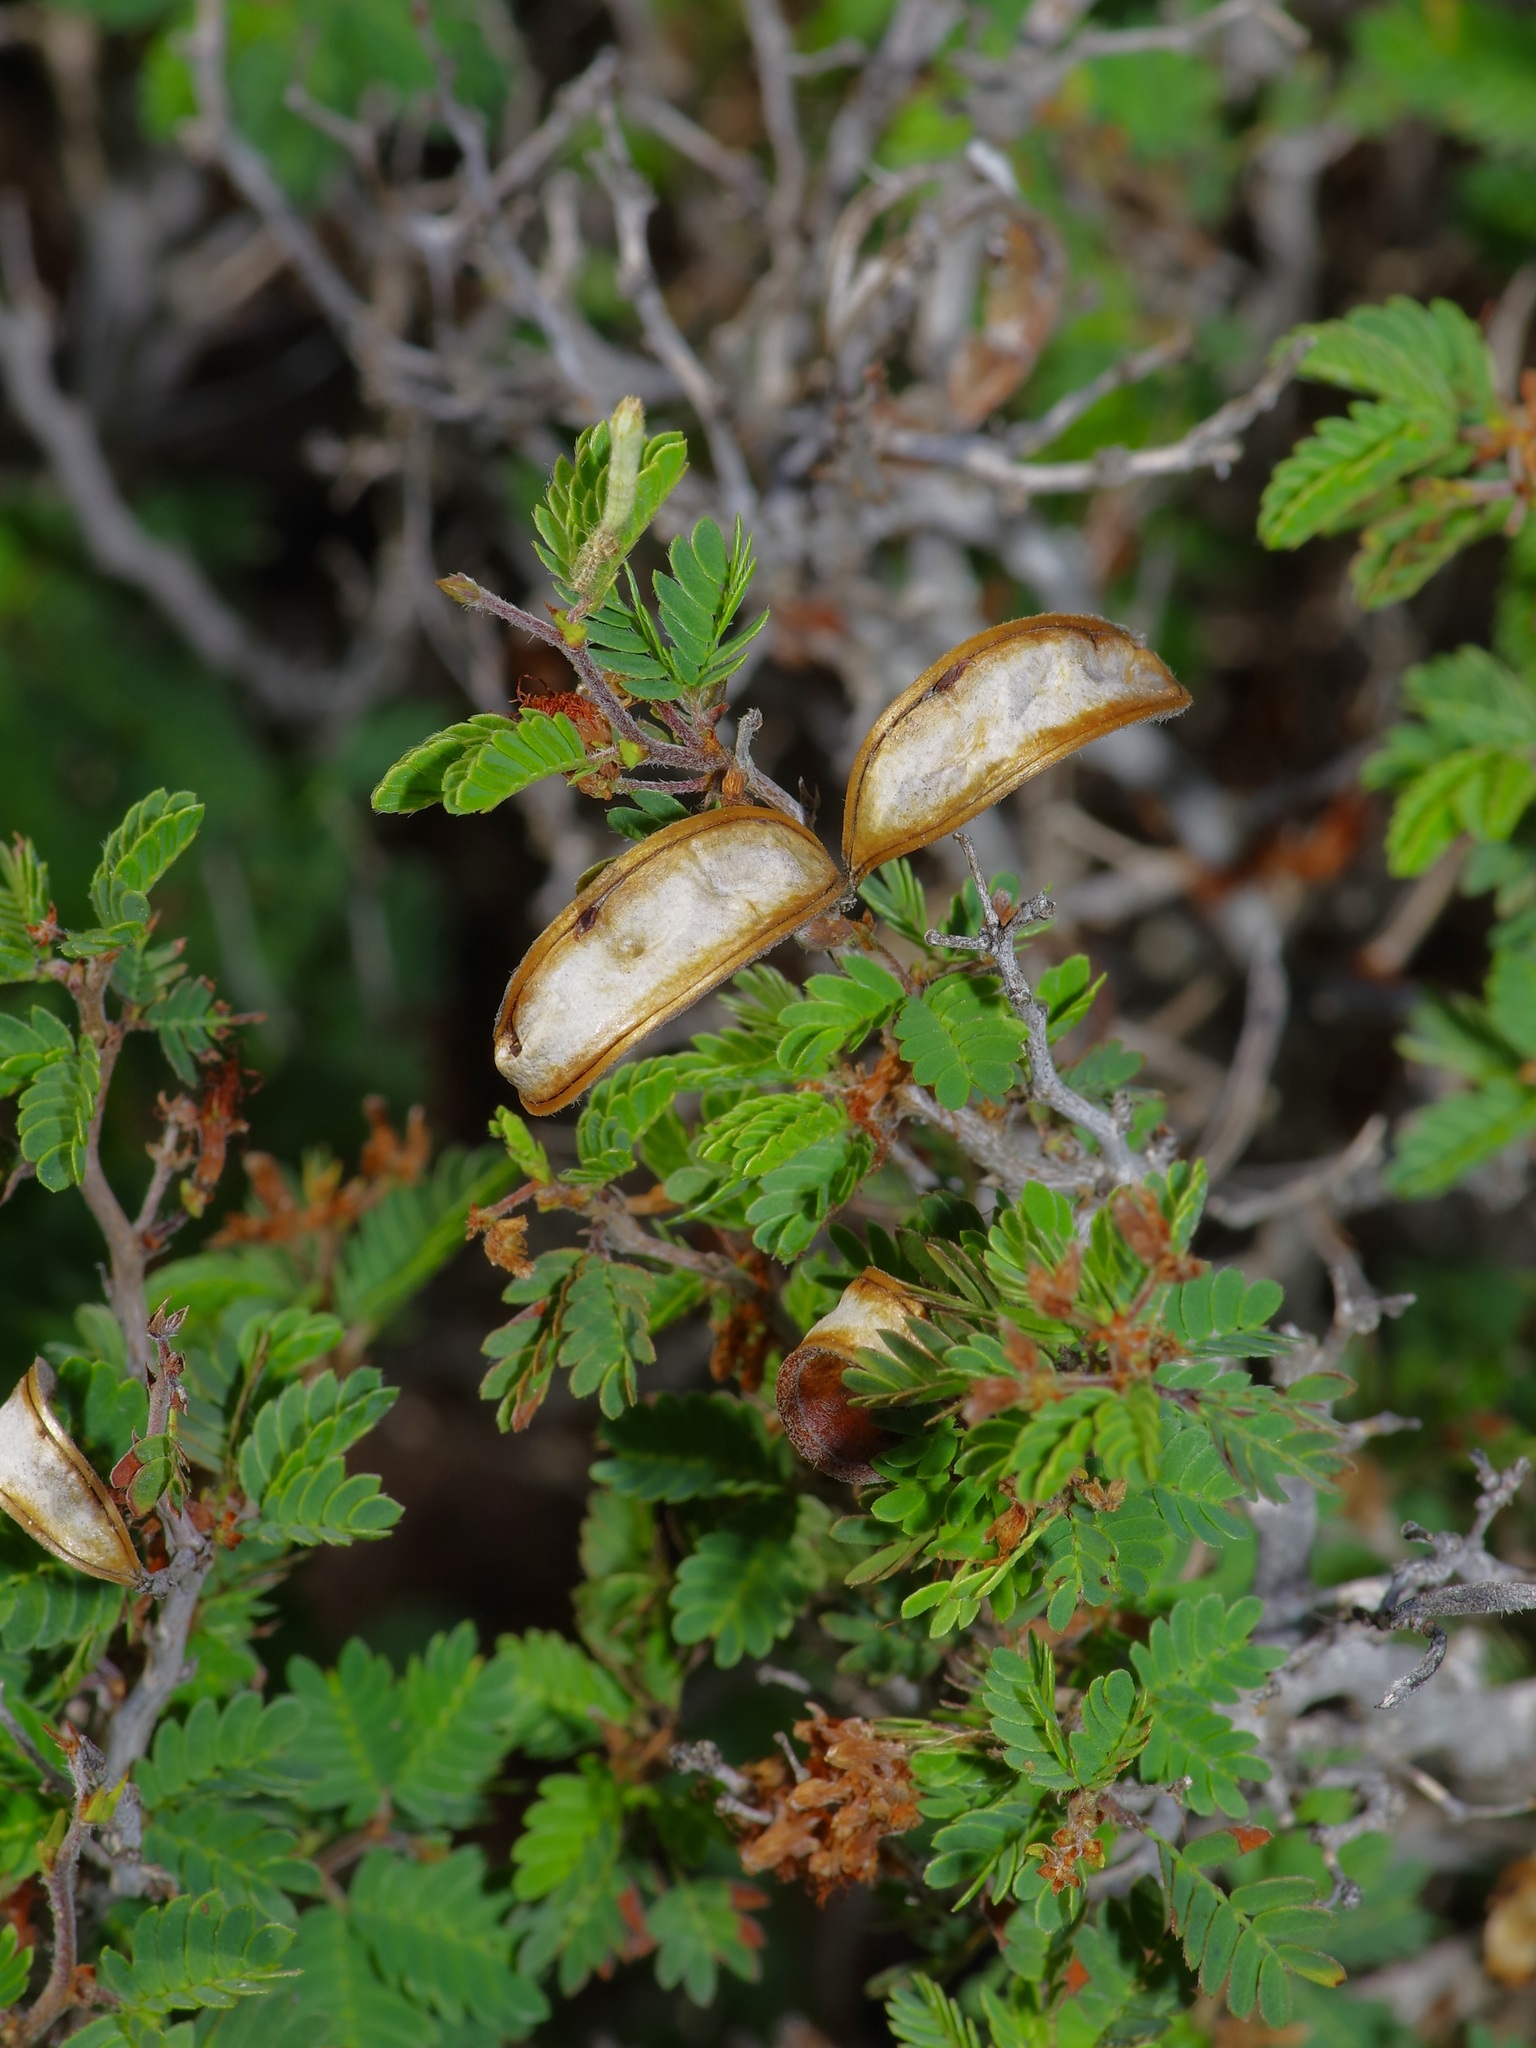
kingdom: Plantae
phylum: Tracheophyta
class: Magnoliopsida
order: Fabales
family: Fabaceae
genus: Calliandra
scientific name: Calliandra conferta
